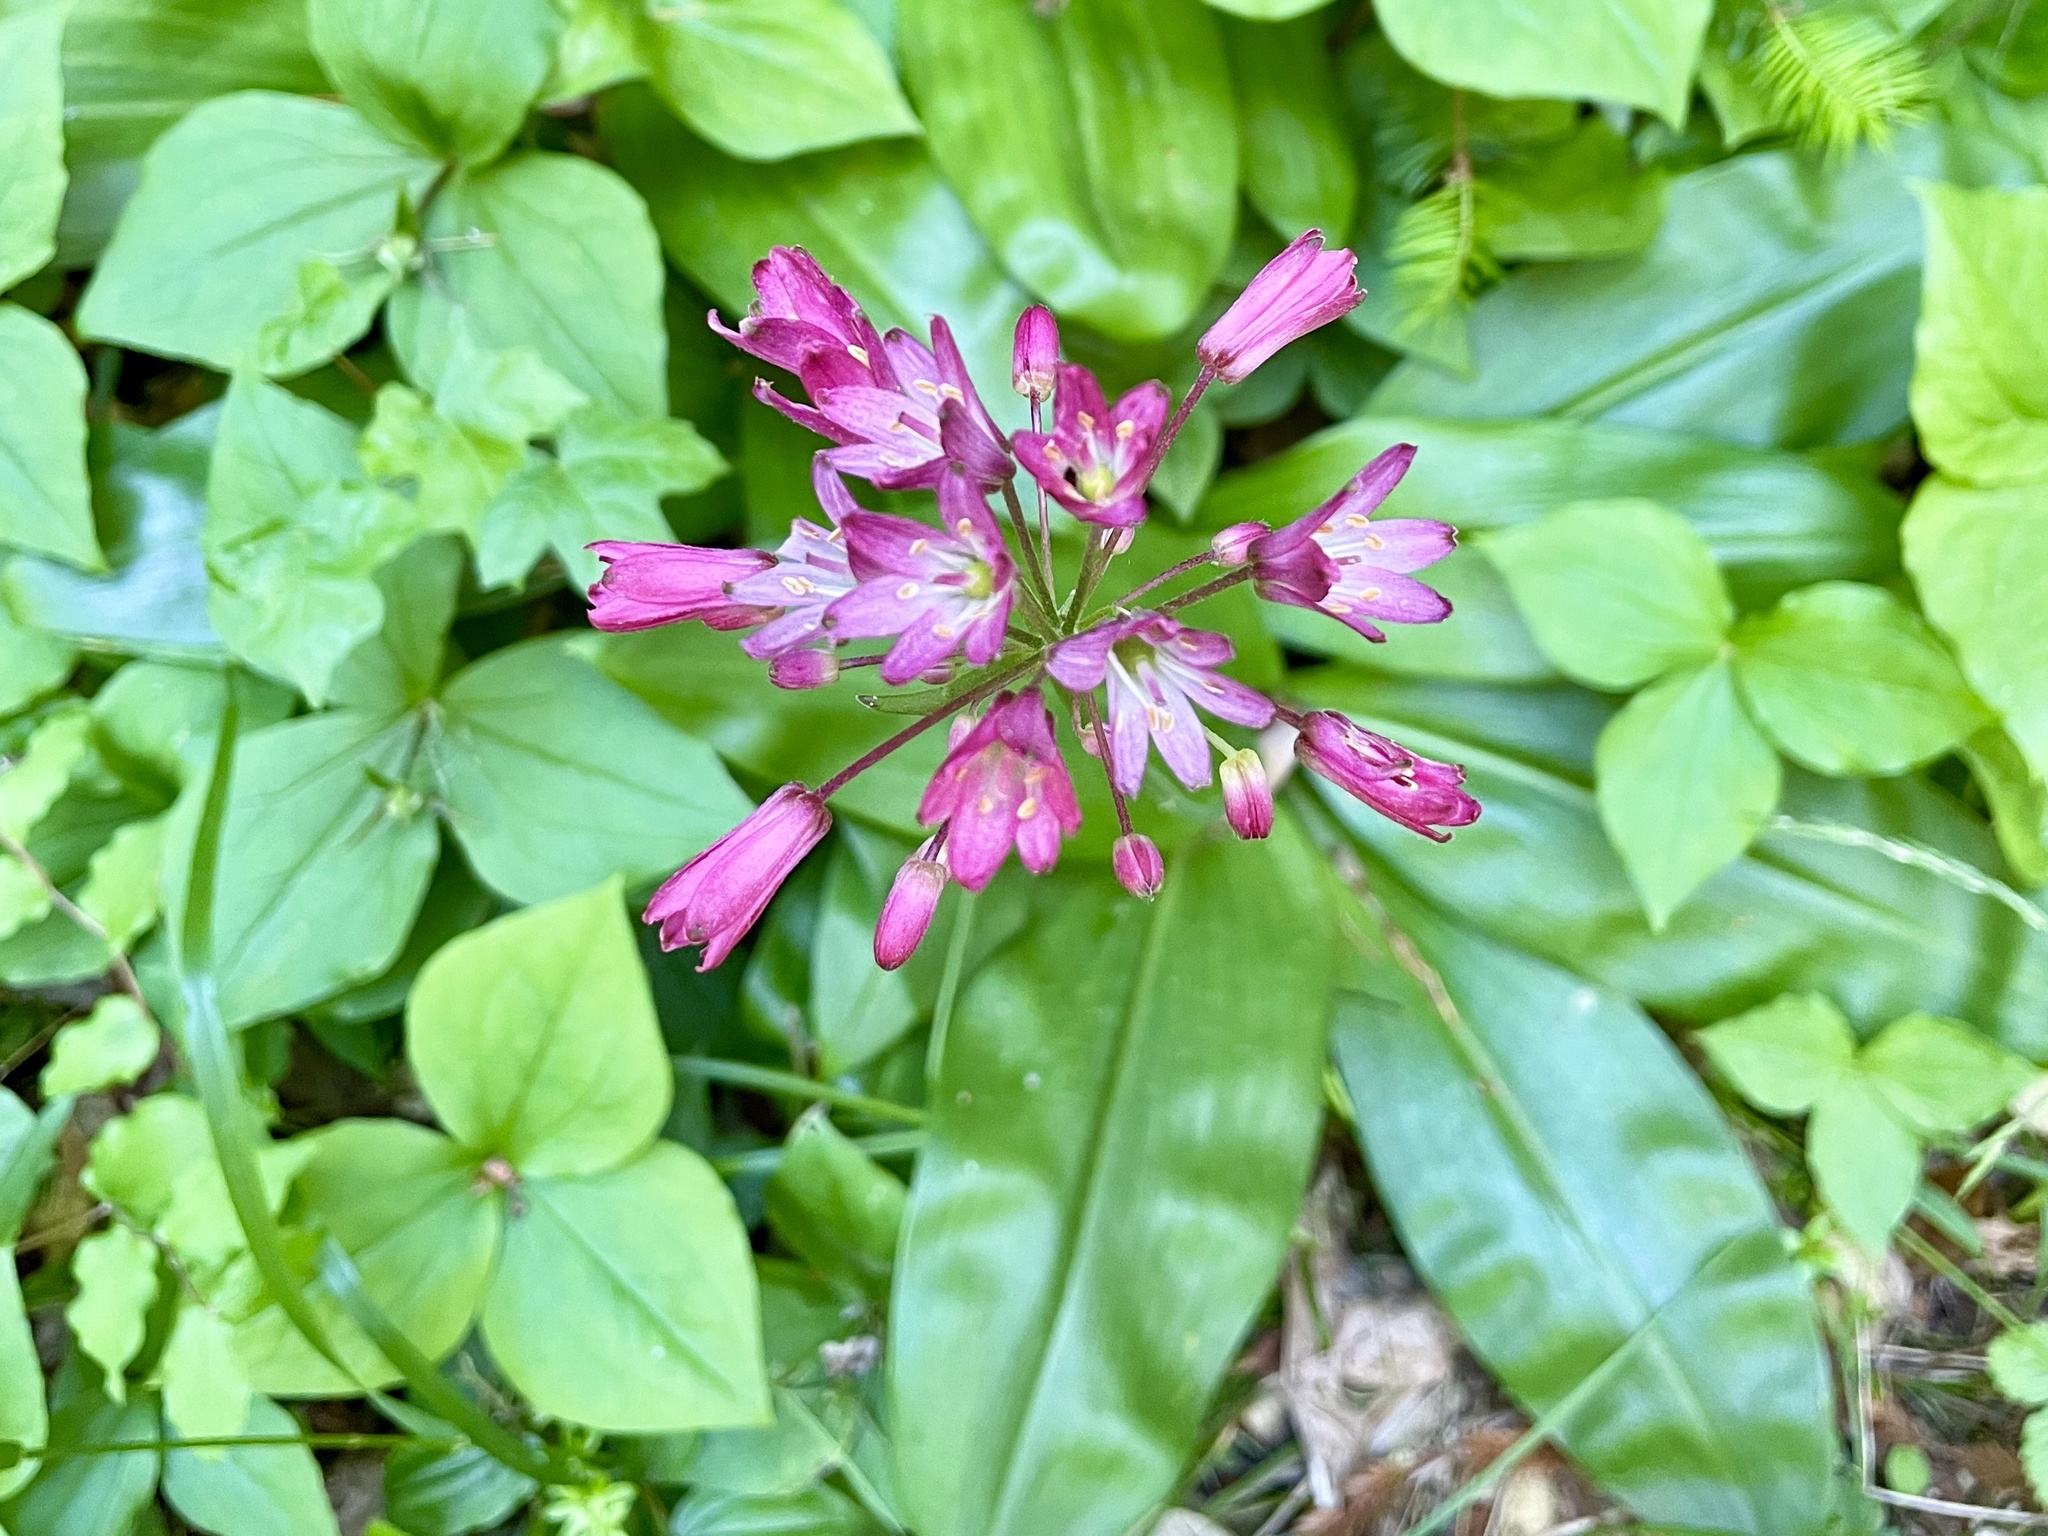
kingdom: Plantae
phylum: Tracheophyta
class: Liliopsida
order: Liliales
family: Liliaceae
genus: Clintonia
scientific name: Clintonia andrewsiana
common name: Red clintonia
